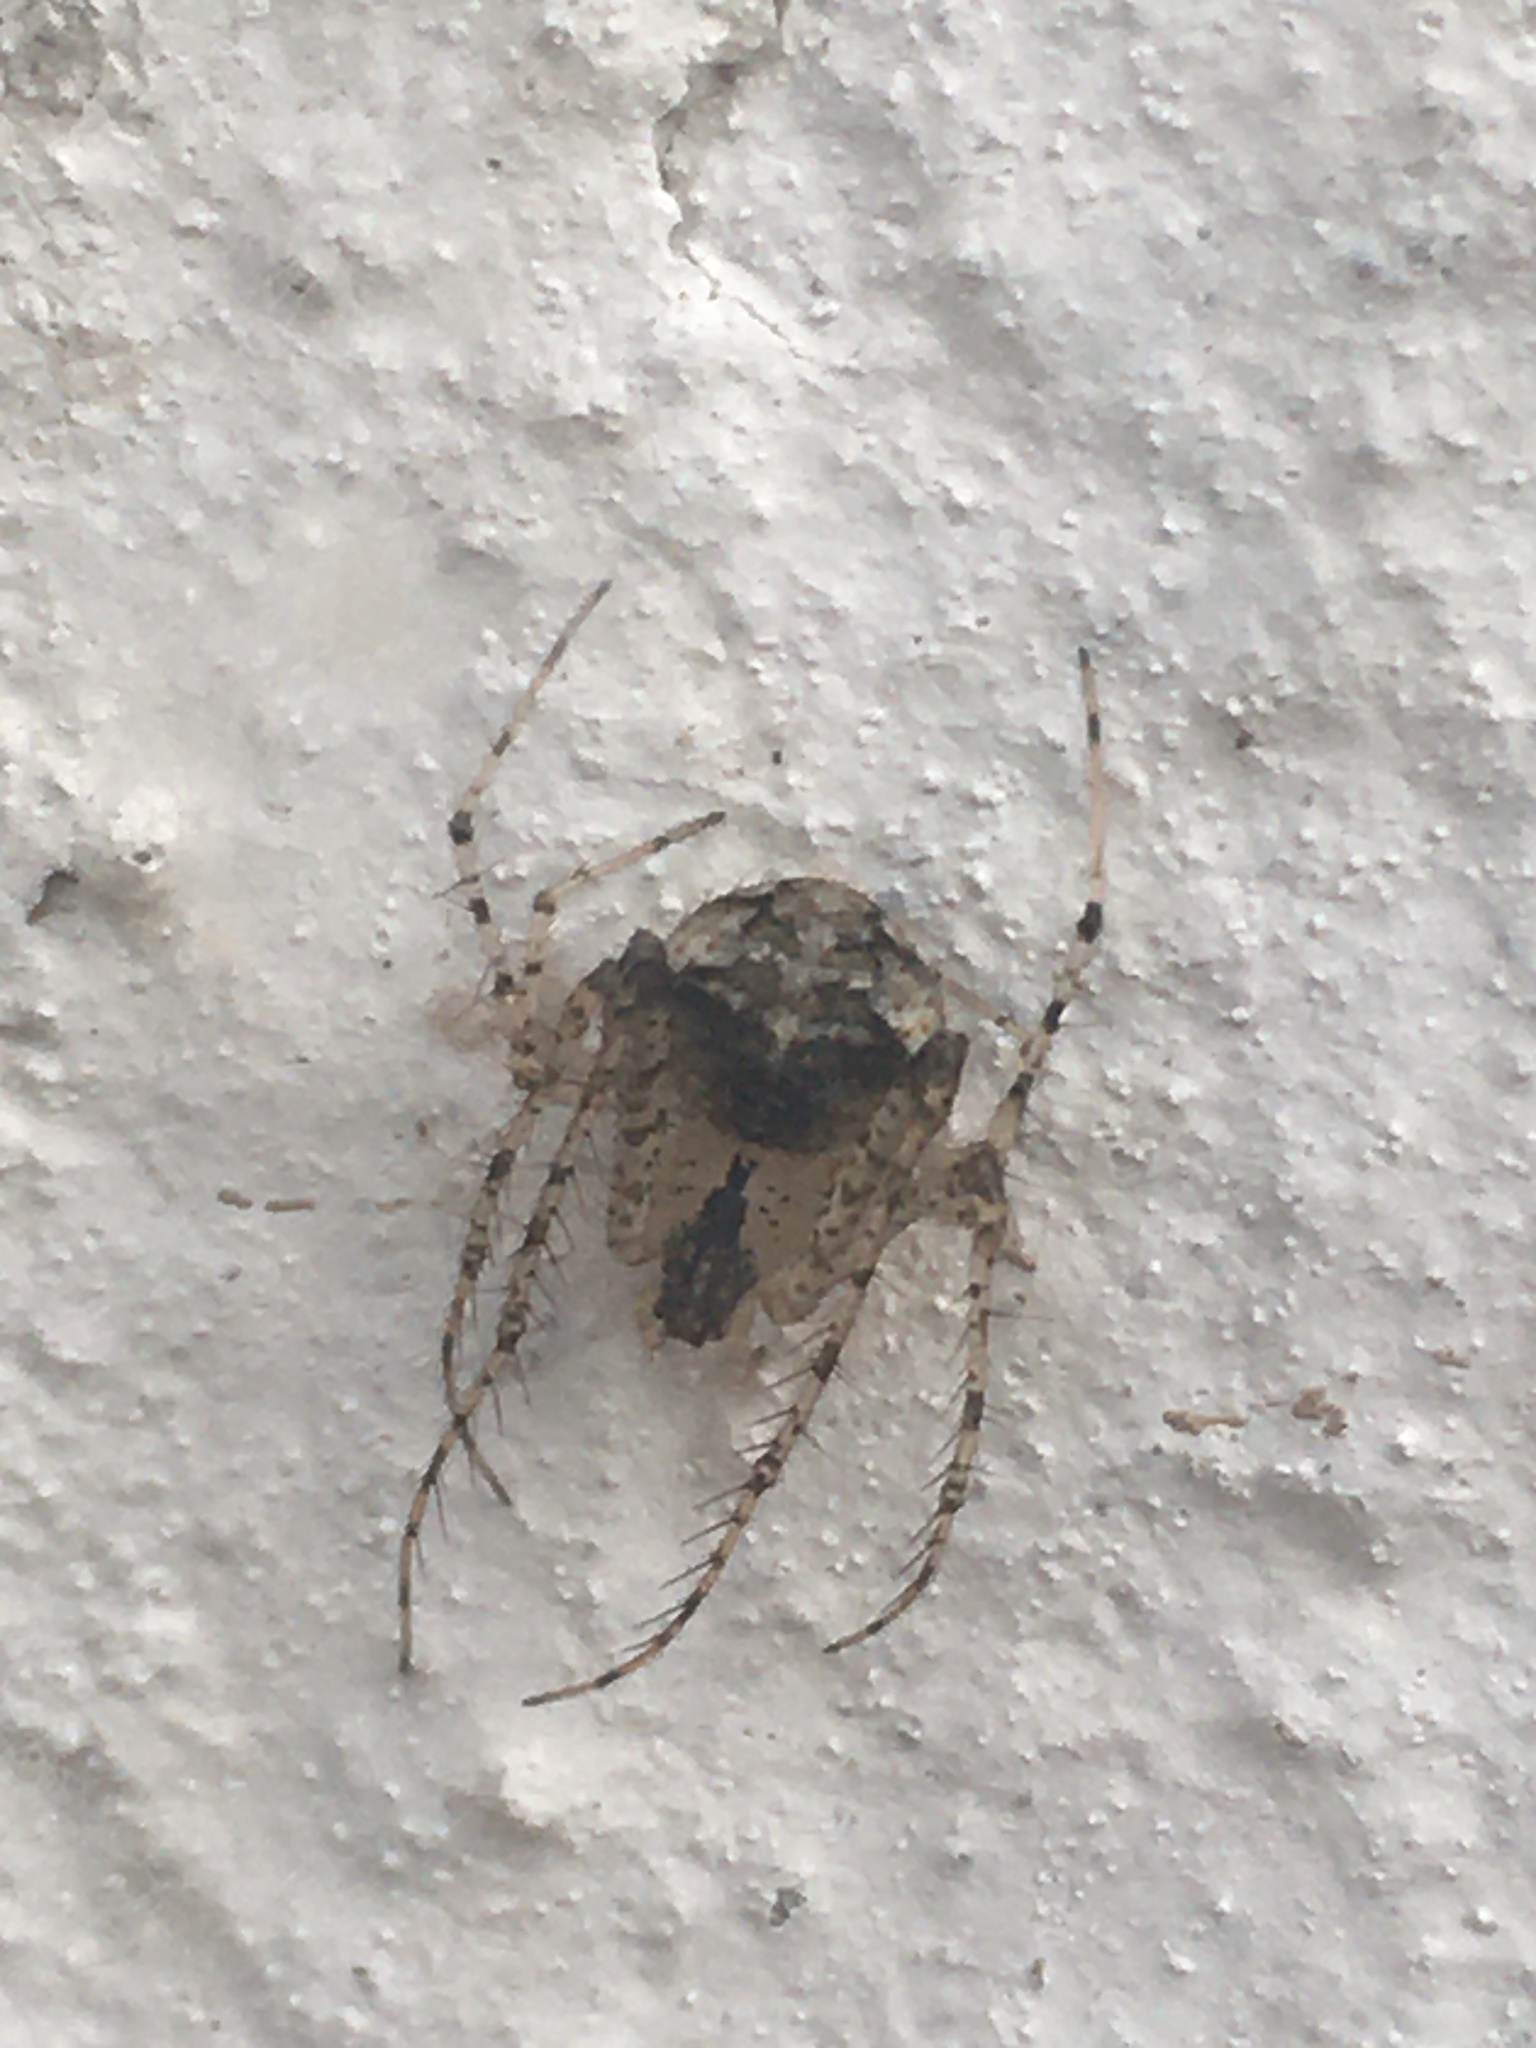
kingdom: Animalia
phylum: Arthropoda
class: Arachnida
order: Araneae
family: Mimetidae
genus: Mimetus
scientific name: Mimetus laevigatus
